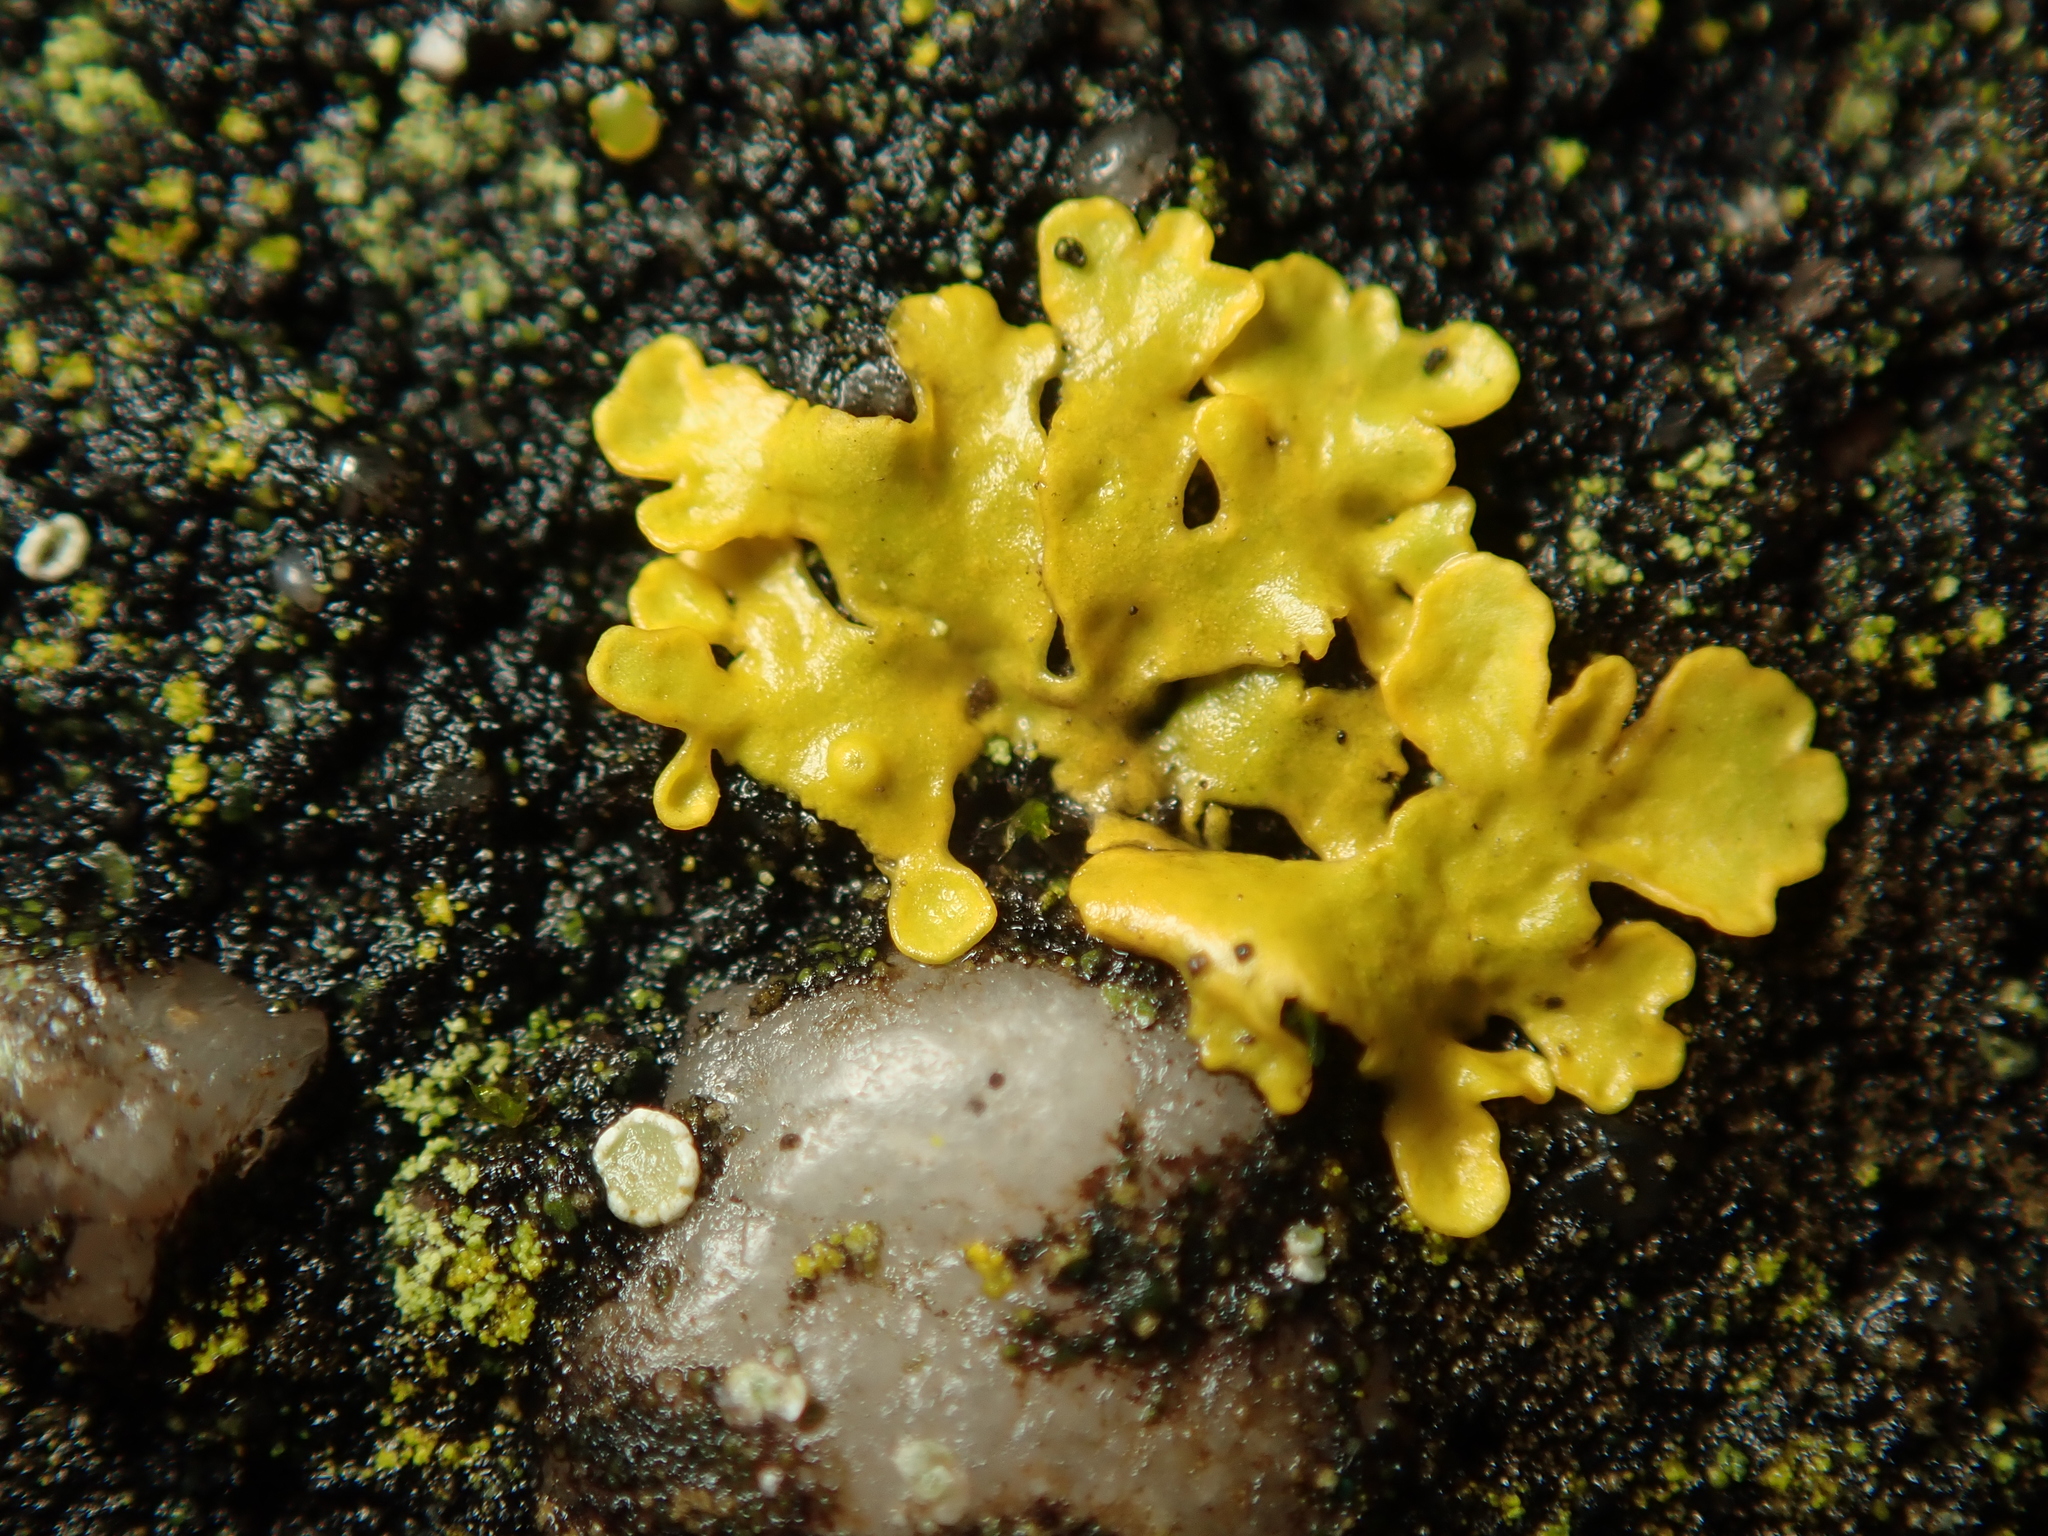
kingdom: Fungi
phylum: Ascomycota
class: Lecanoromycetes
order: Teloschistales
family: Teloschistaceae
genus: Xanthoria
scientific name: Xanthoria parietina
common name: Common orange lichen
